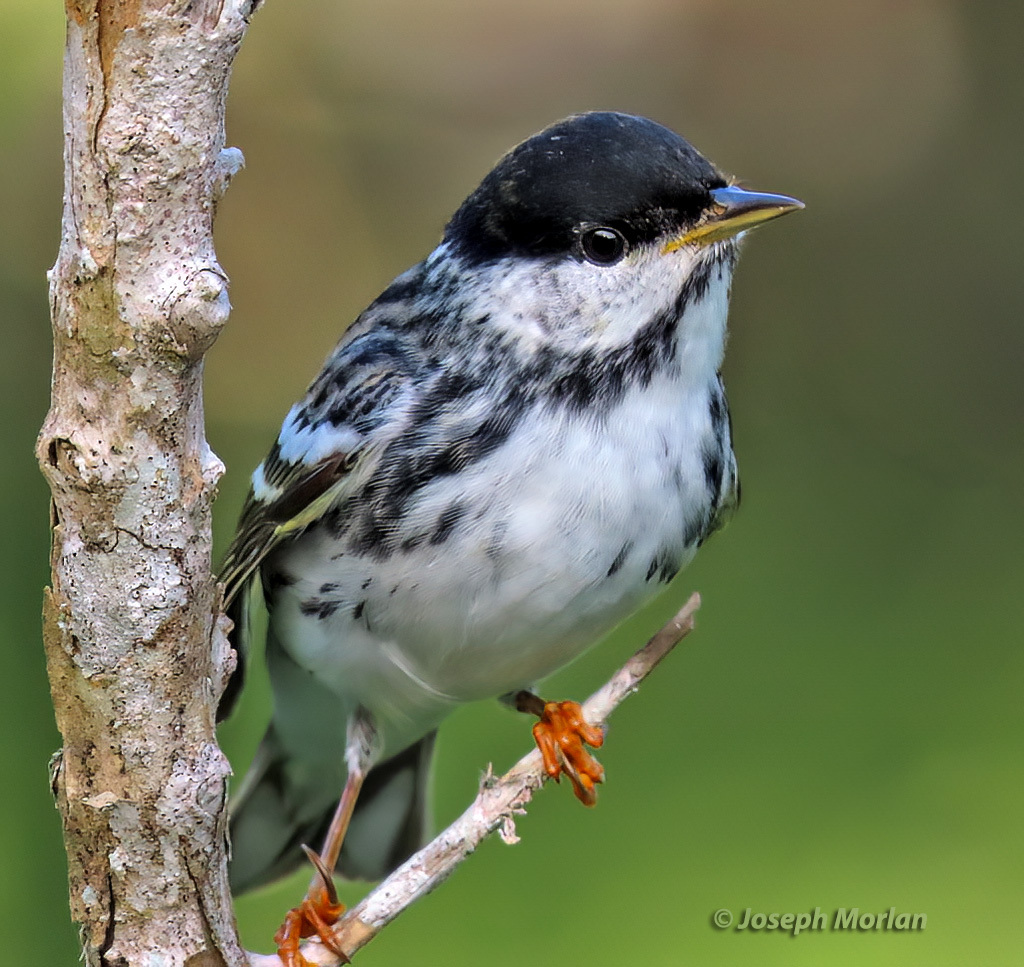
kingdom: Animalia
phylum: Chordata
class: Aves
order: Passeriformes
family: Parulidae
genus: Setophaga
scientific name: Setophaga striata
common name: Blackpoll warbler
